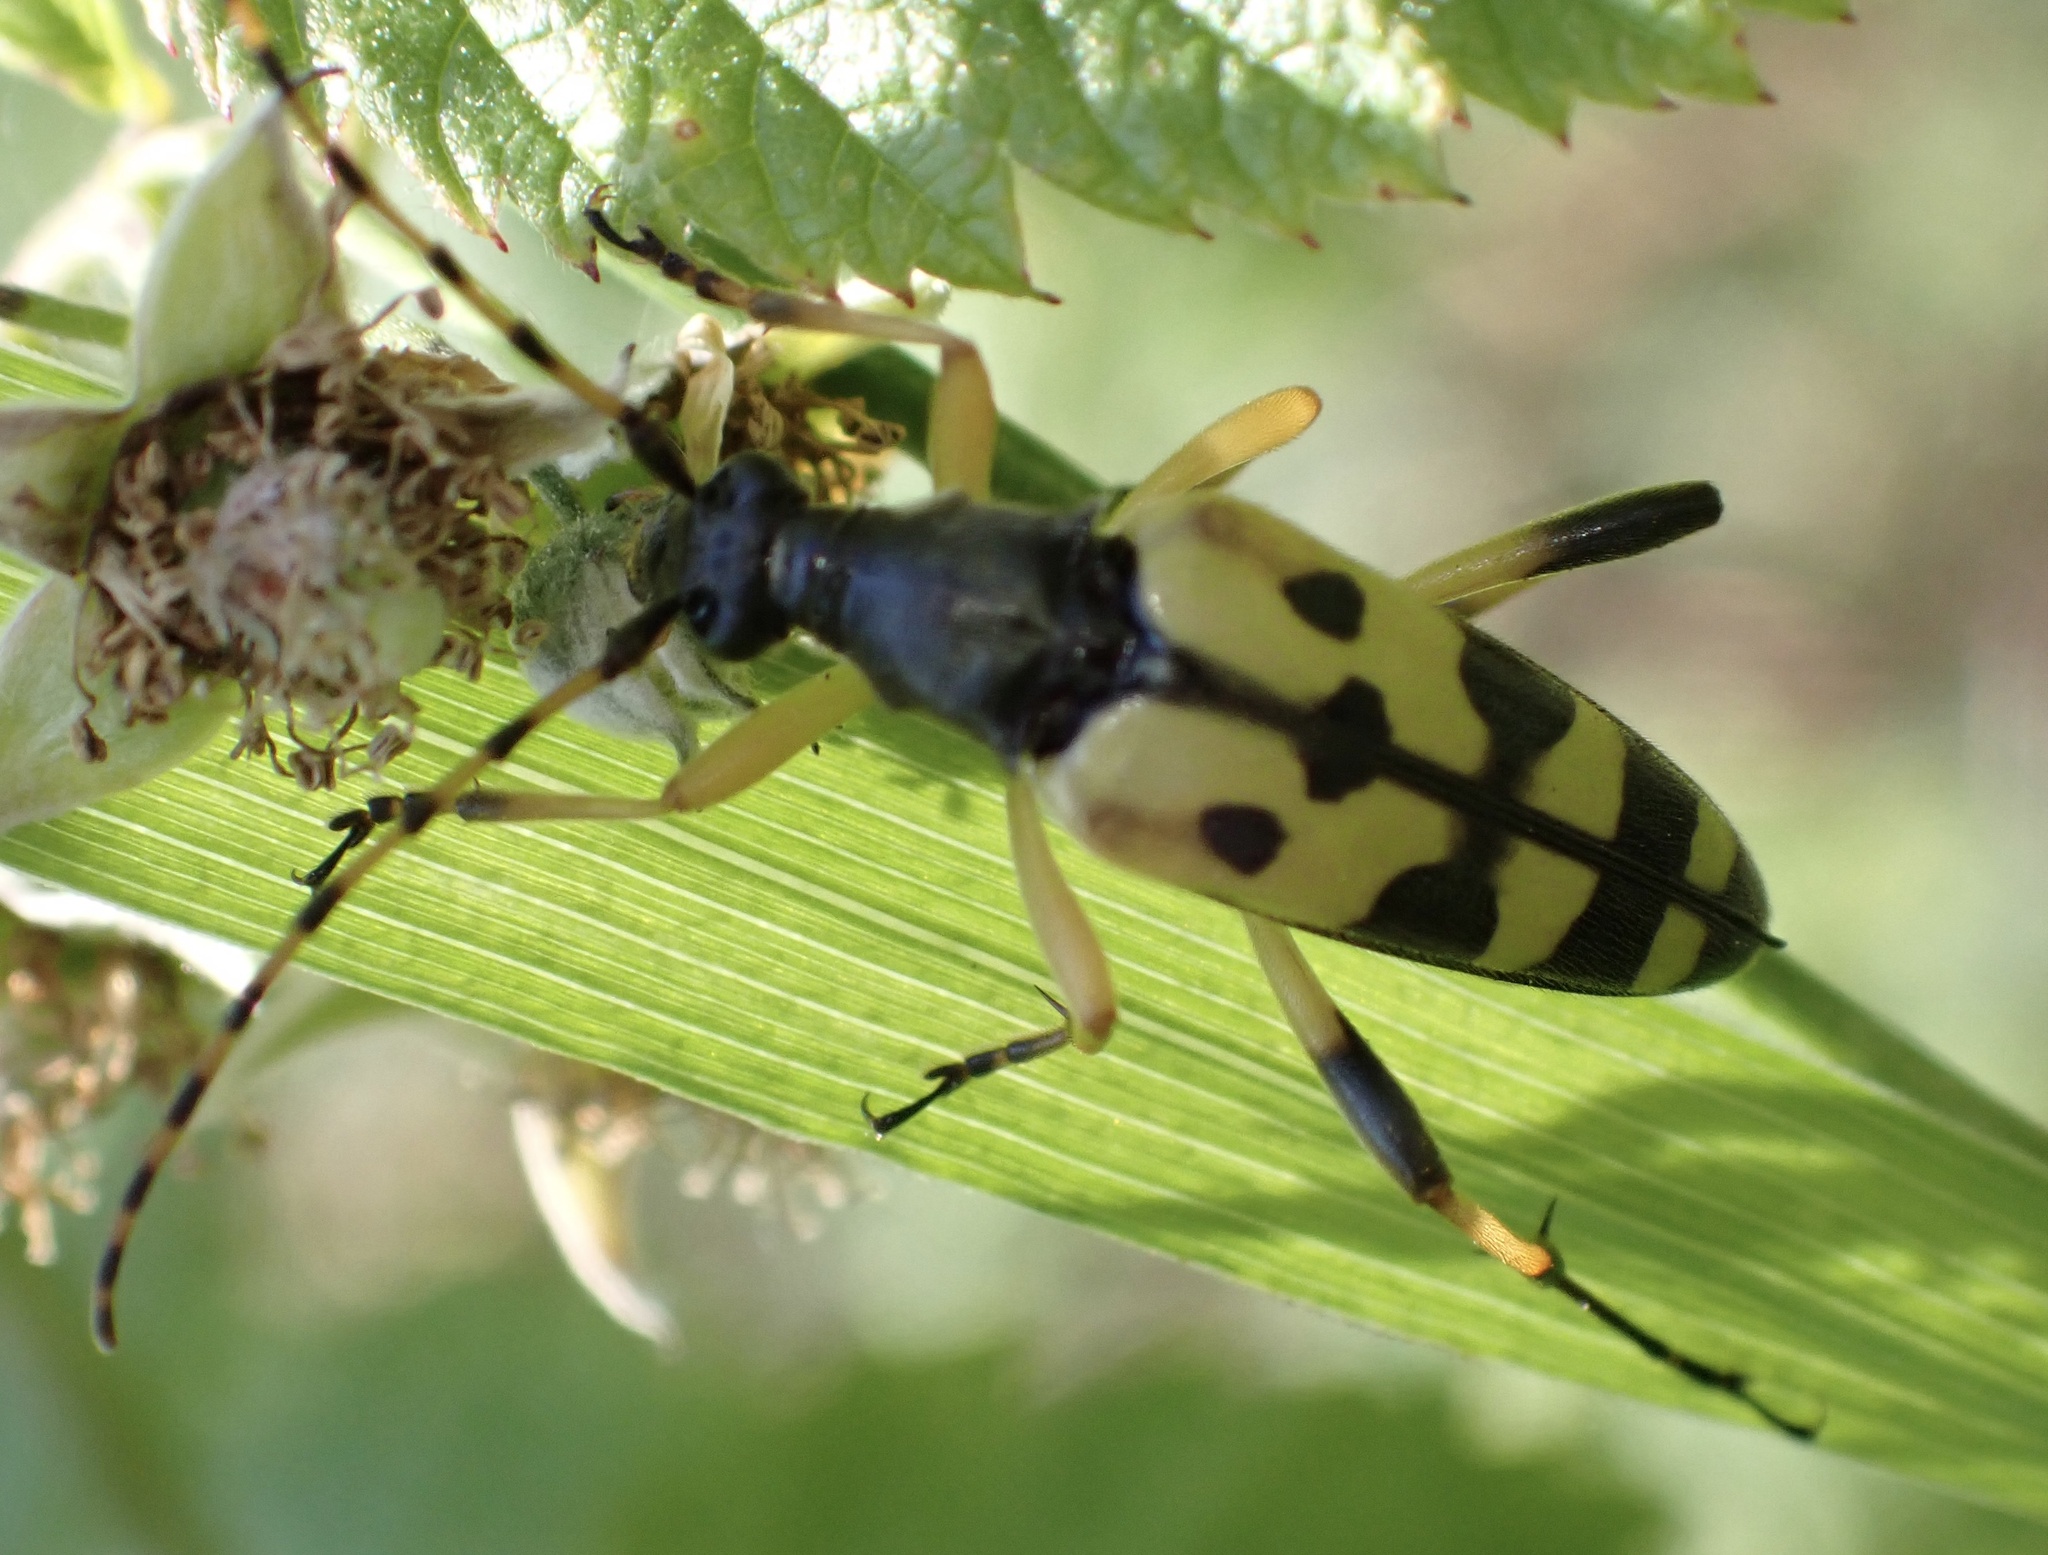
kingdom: Animalia
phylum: Arthropoda
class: Insecta
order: Coleoptera
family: Cerambycidae
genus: Rutpela
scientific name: Rutpela maculata
